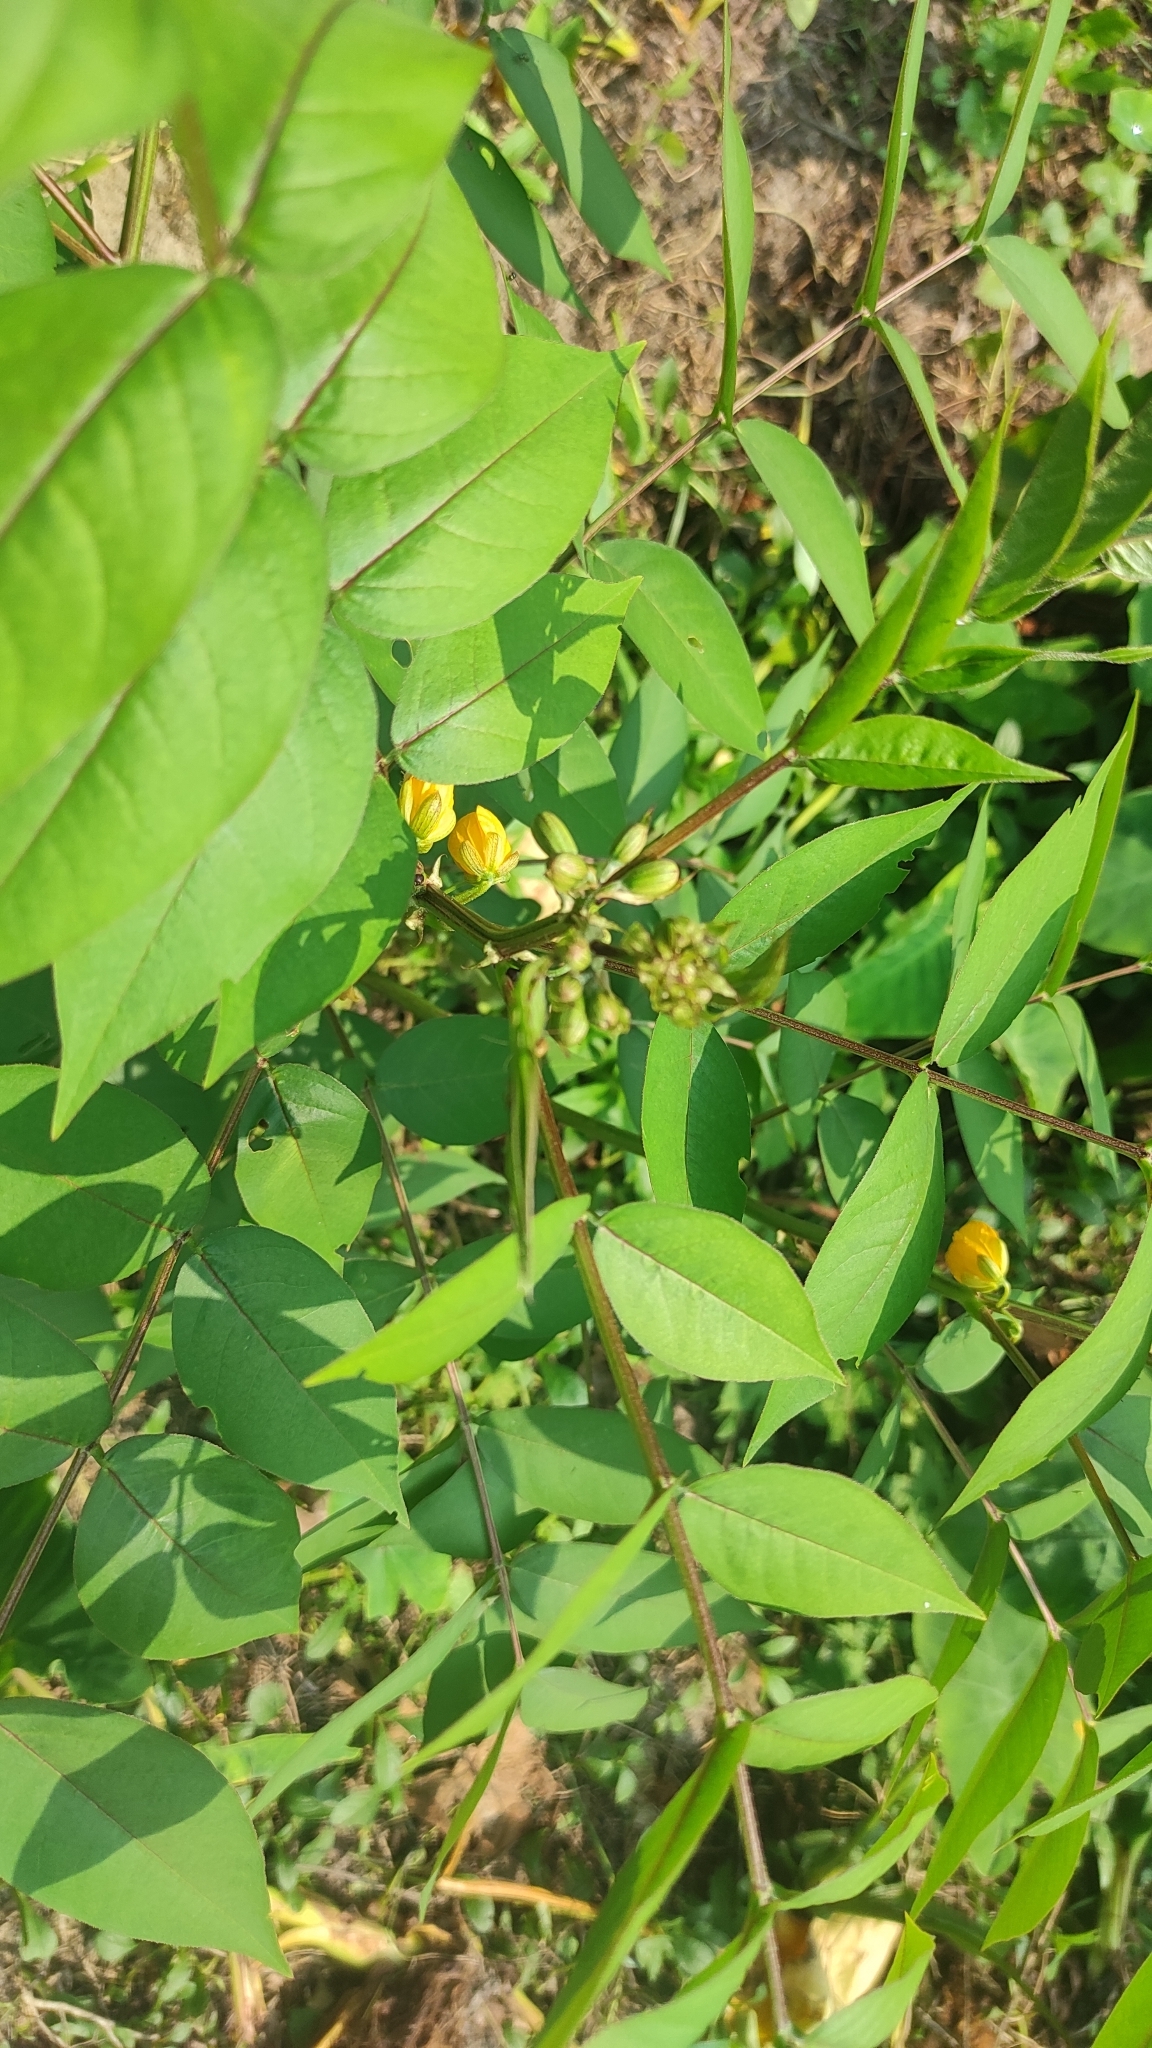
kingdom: Plantae
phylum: Tracheophyta
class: Magnoliopsida
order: Fabales
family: Fabaceae
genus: Senna
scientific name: Senna occidentalis
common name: Septicweed
